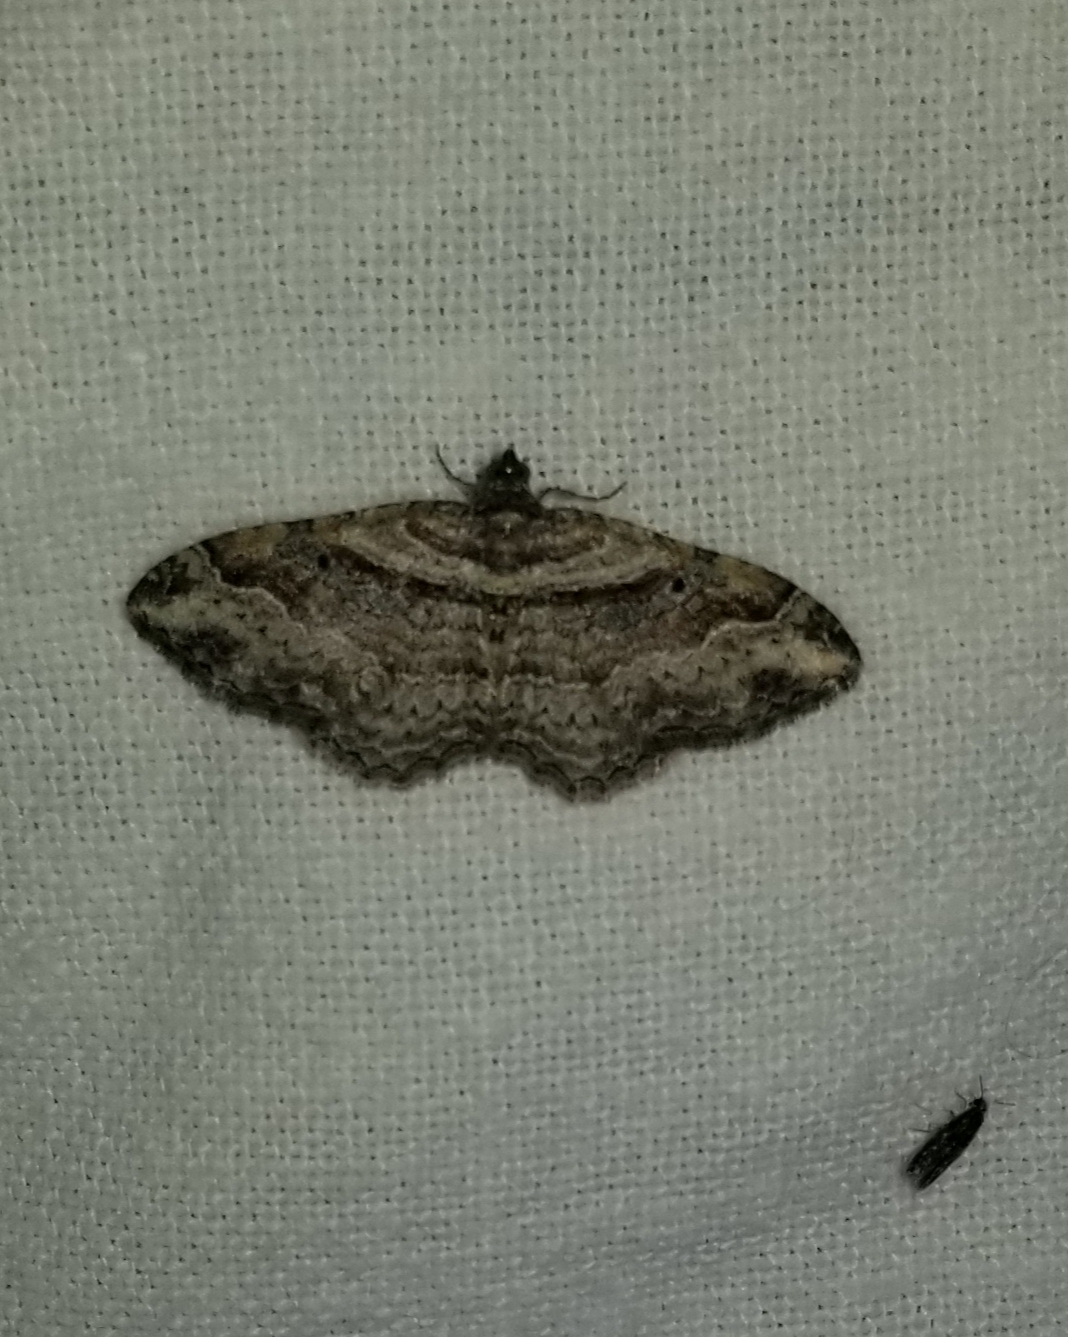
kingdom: Animalia
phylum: Arthropoda
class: Insecta
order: Lepidoptera
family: Geometridae
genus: Costaconvexa
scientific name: Costaconvexa centrostrigaria
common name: Bent-line carpet
